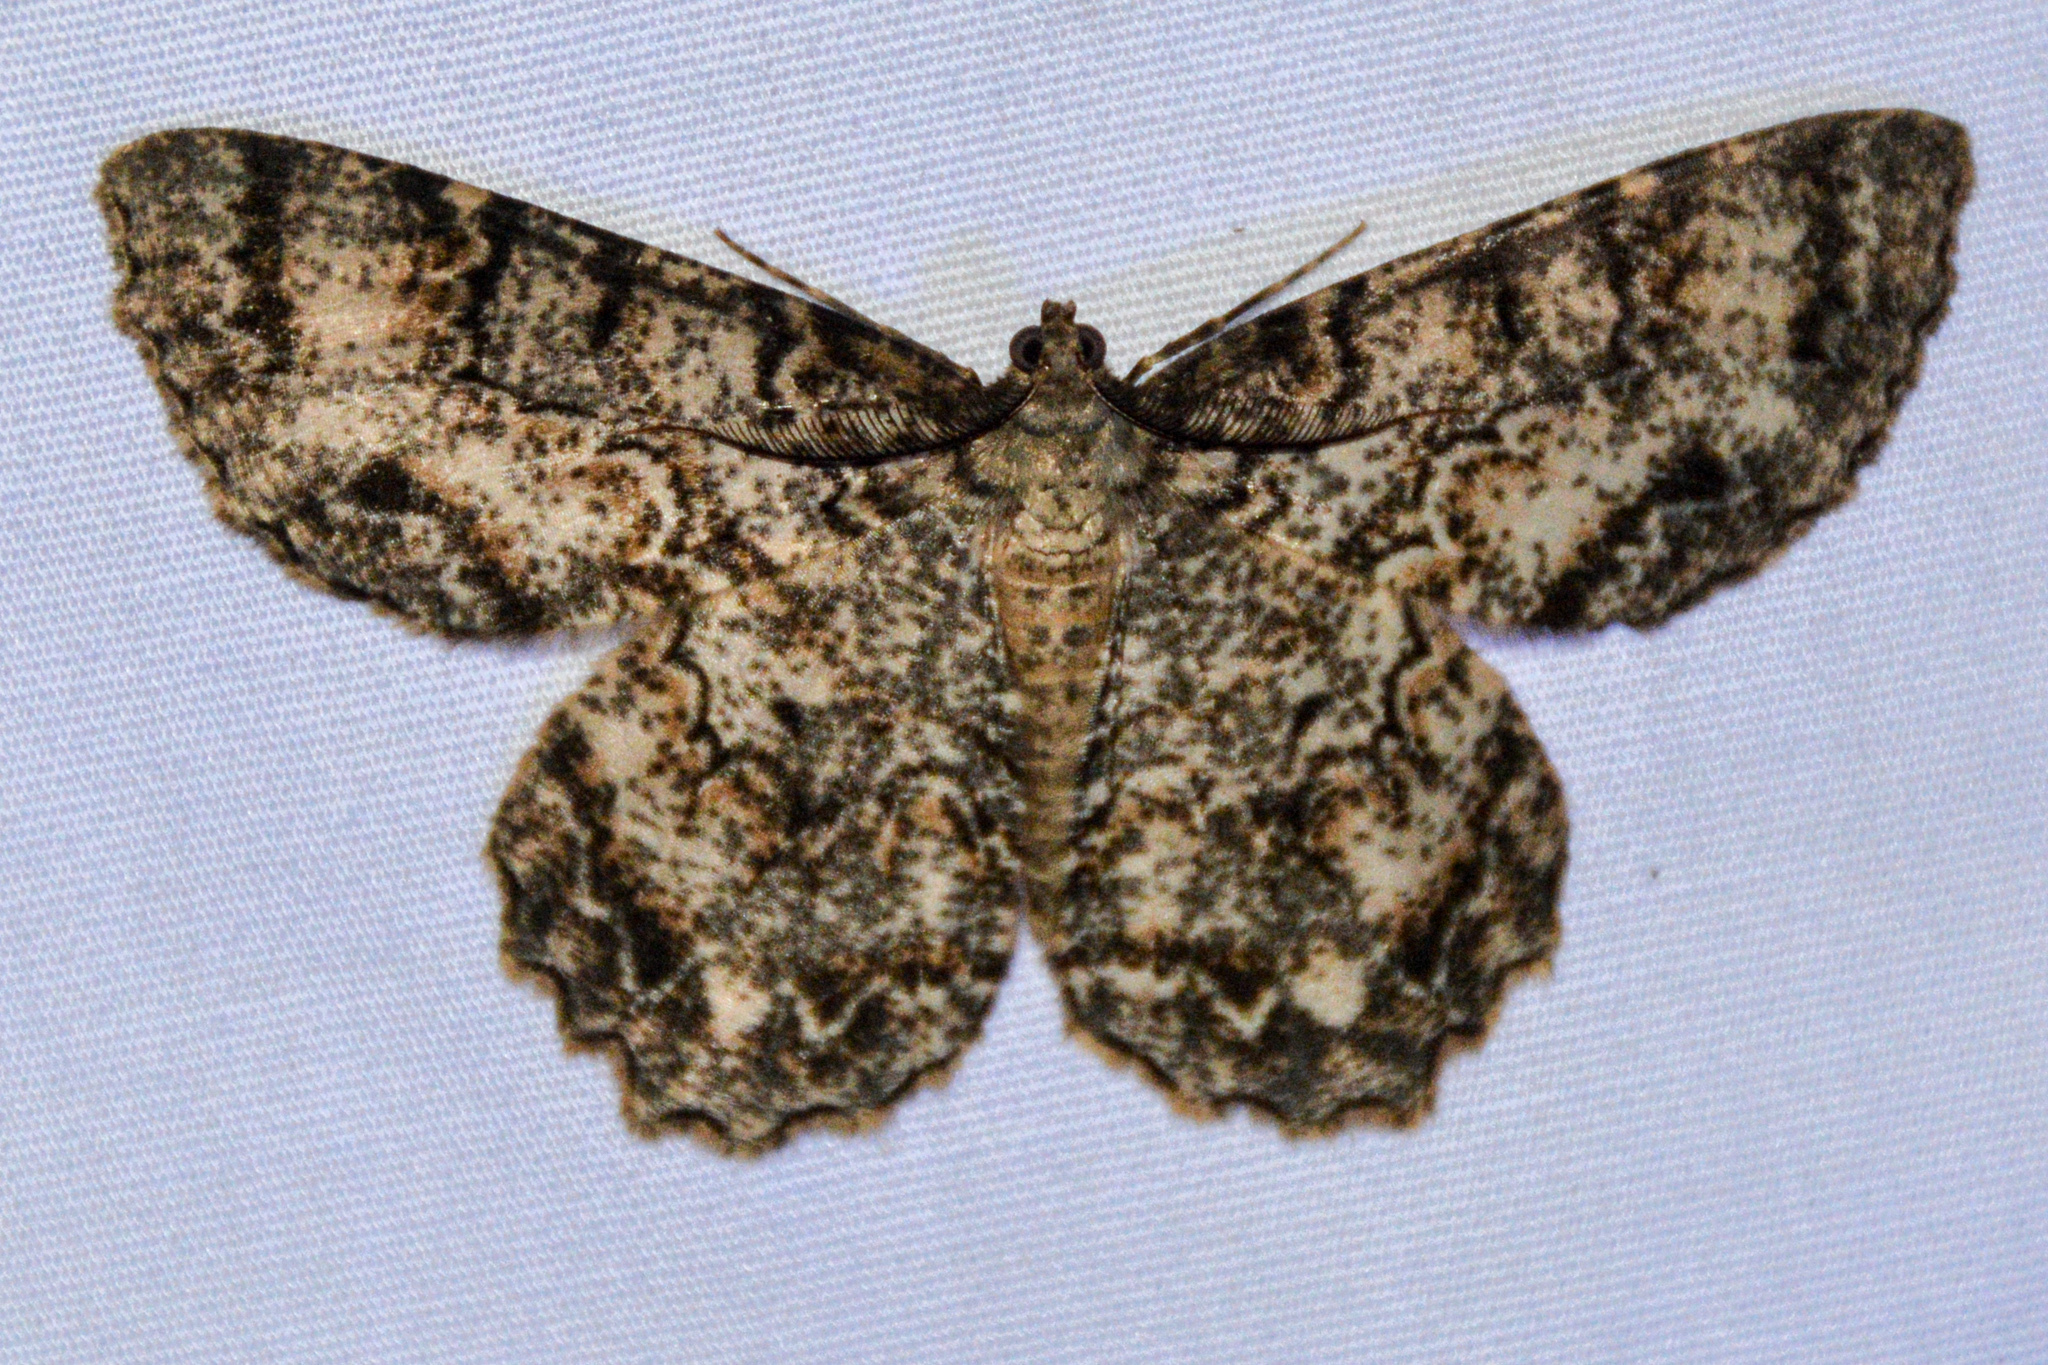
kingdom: Animalia
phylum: Arthropoda
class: Insecta
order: Lepidoptera
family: Geometridae
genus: Epimecis
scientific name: Epimecis hortaria
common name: Tulip-tree beauty
